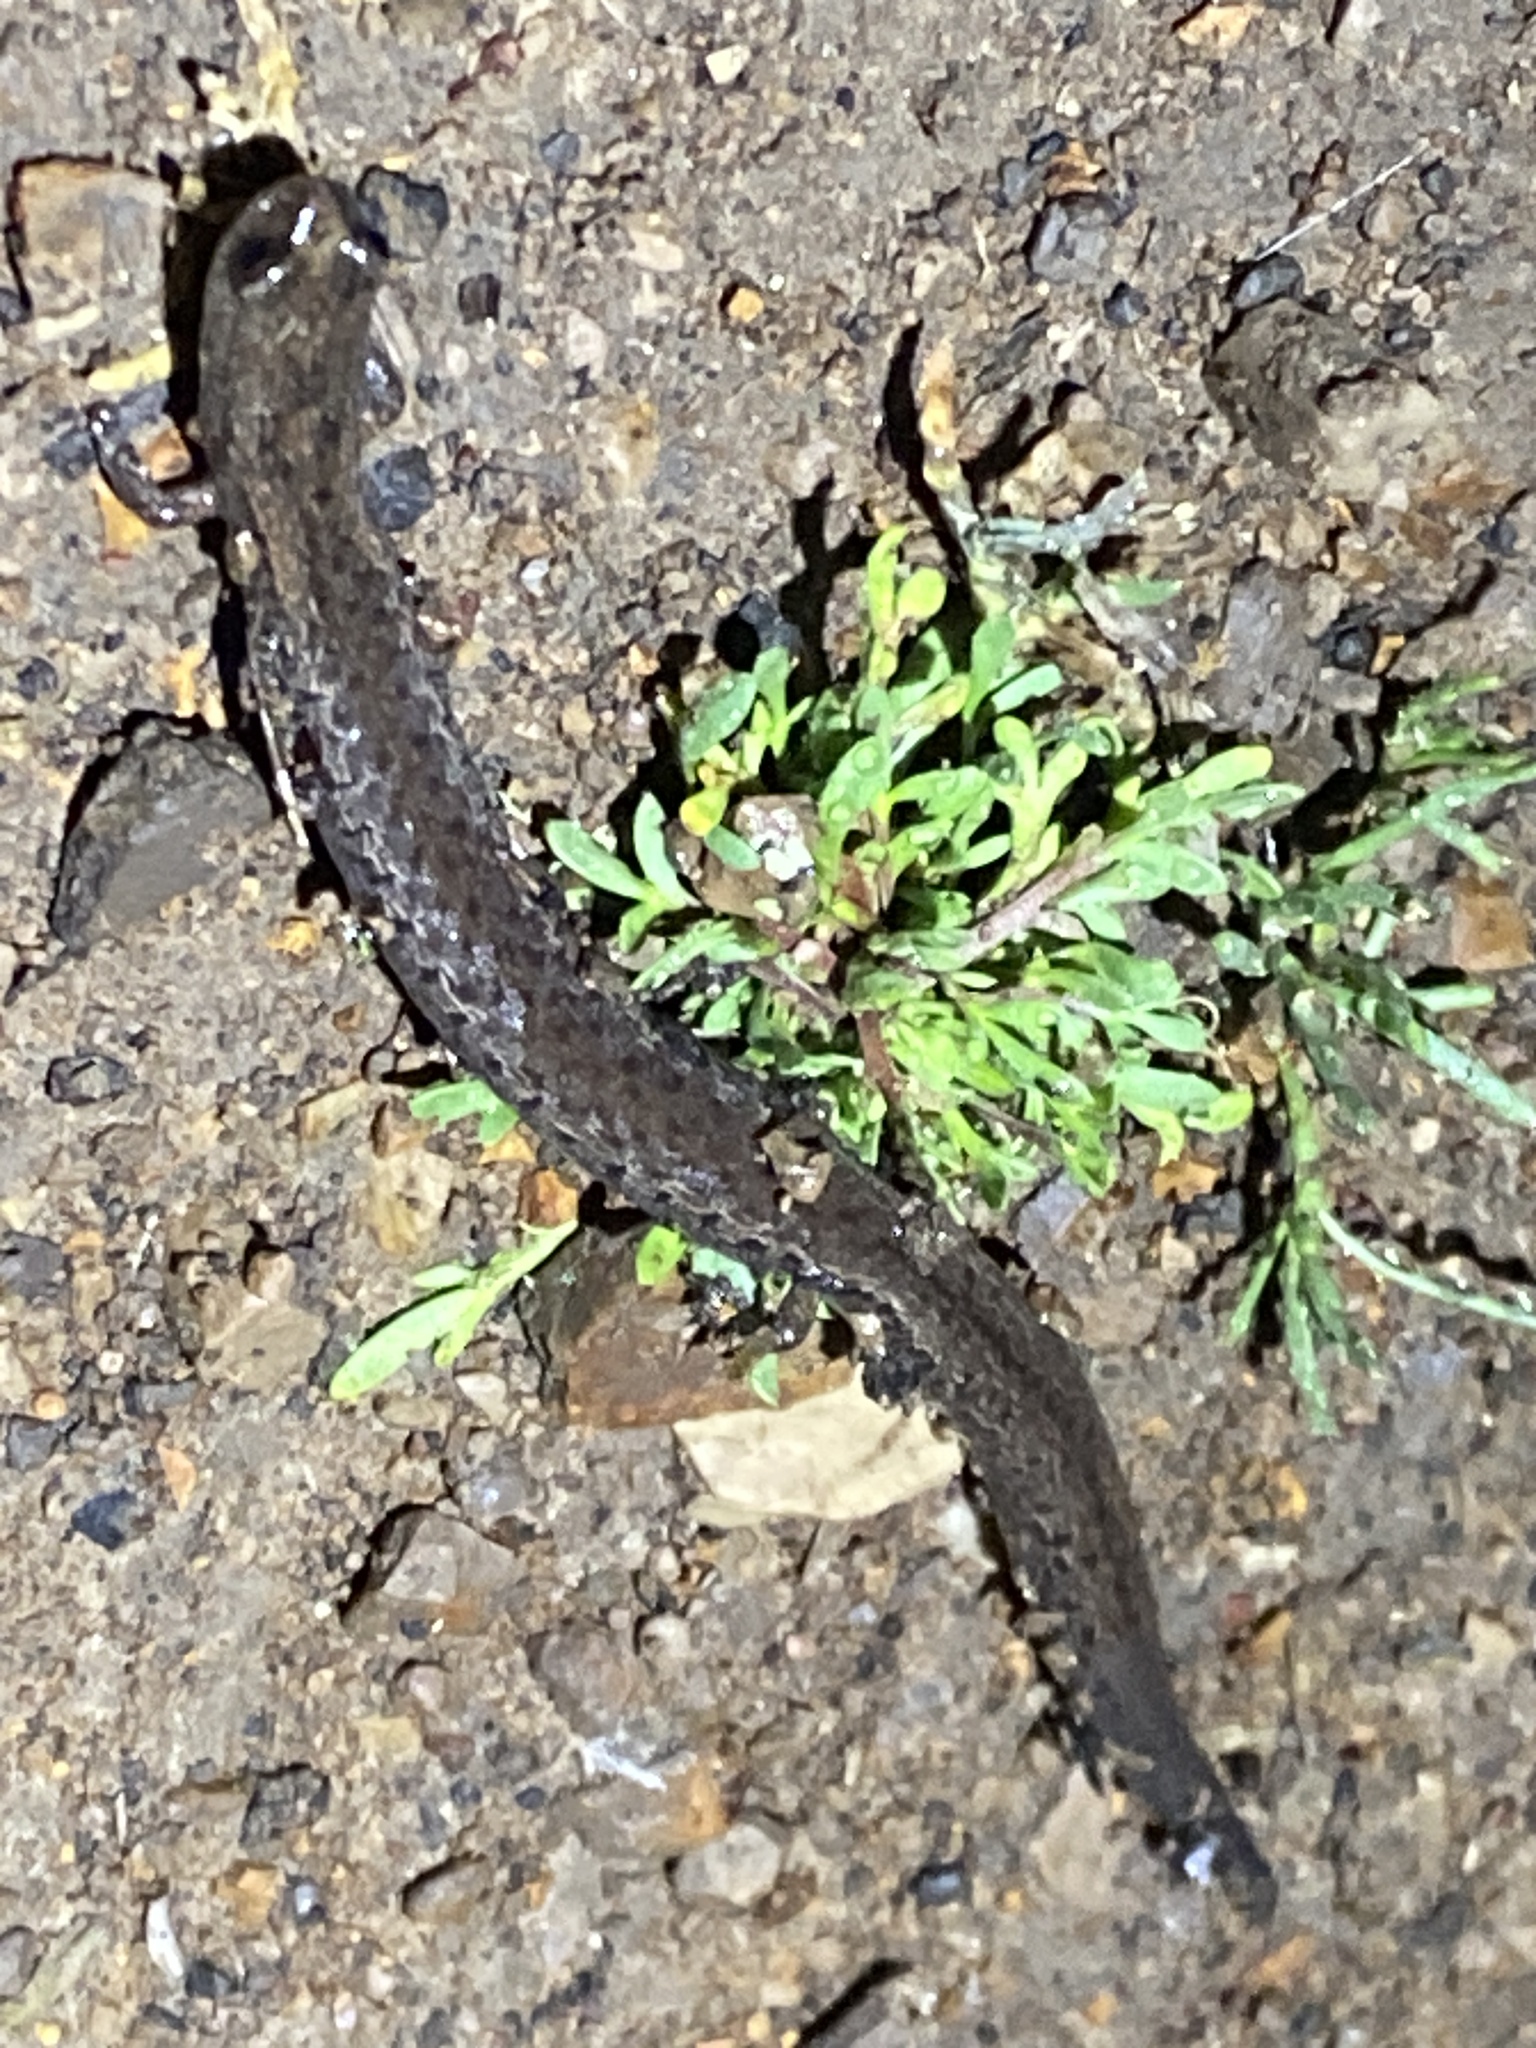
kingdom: Animalia
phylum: Chordata
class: Amphibia
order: Caudata
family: Plethodontidae
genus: Batrachoseps
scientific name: Batrachoseps attenuatus
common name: California slender salamander
